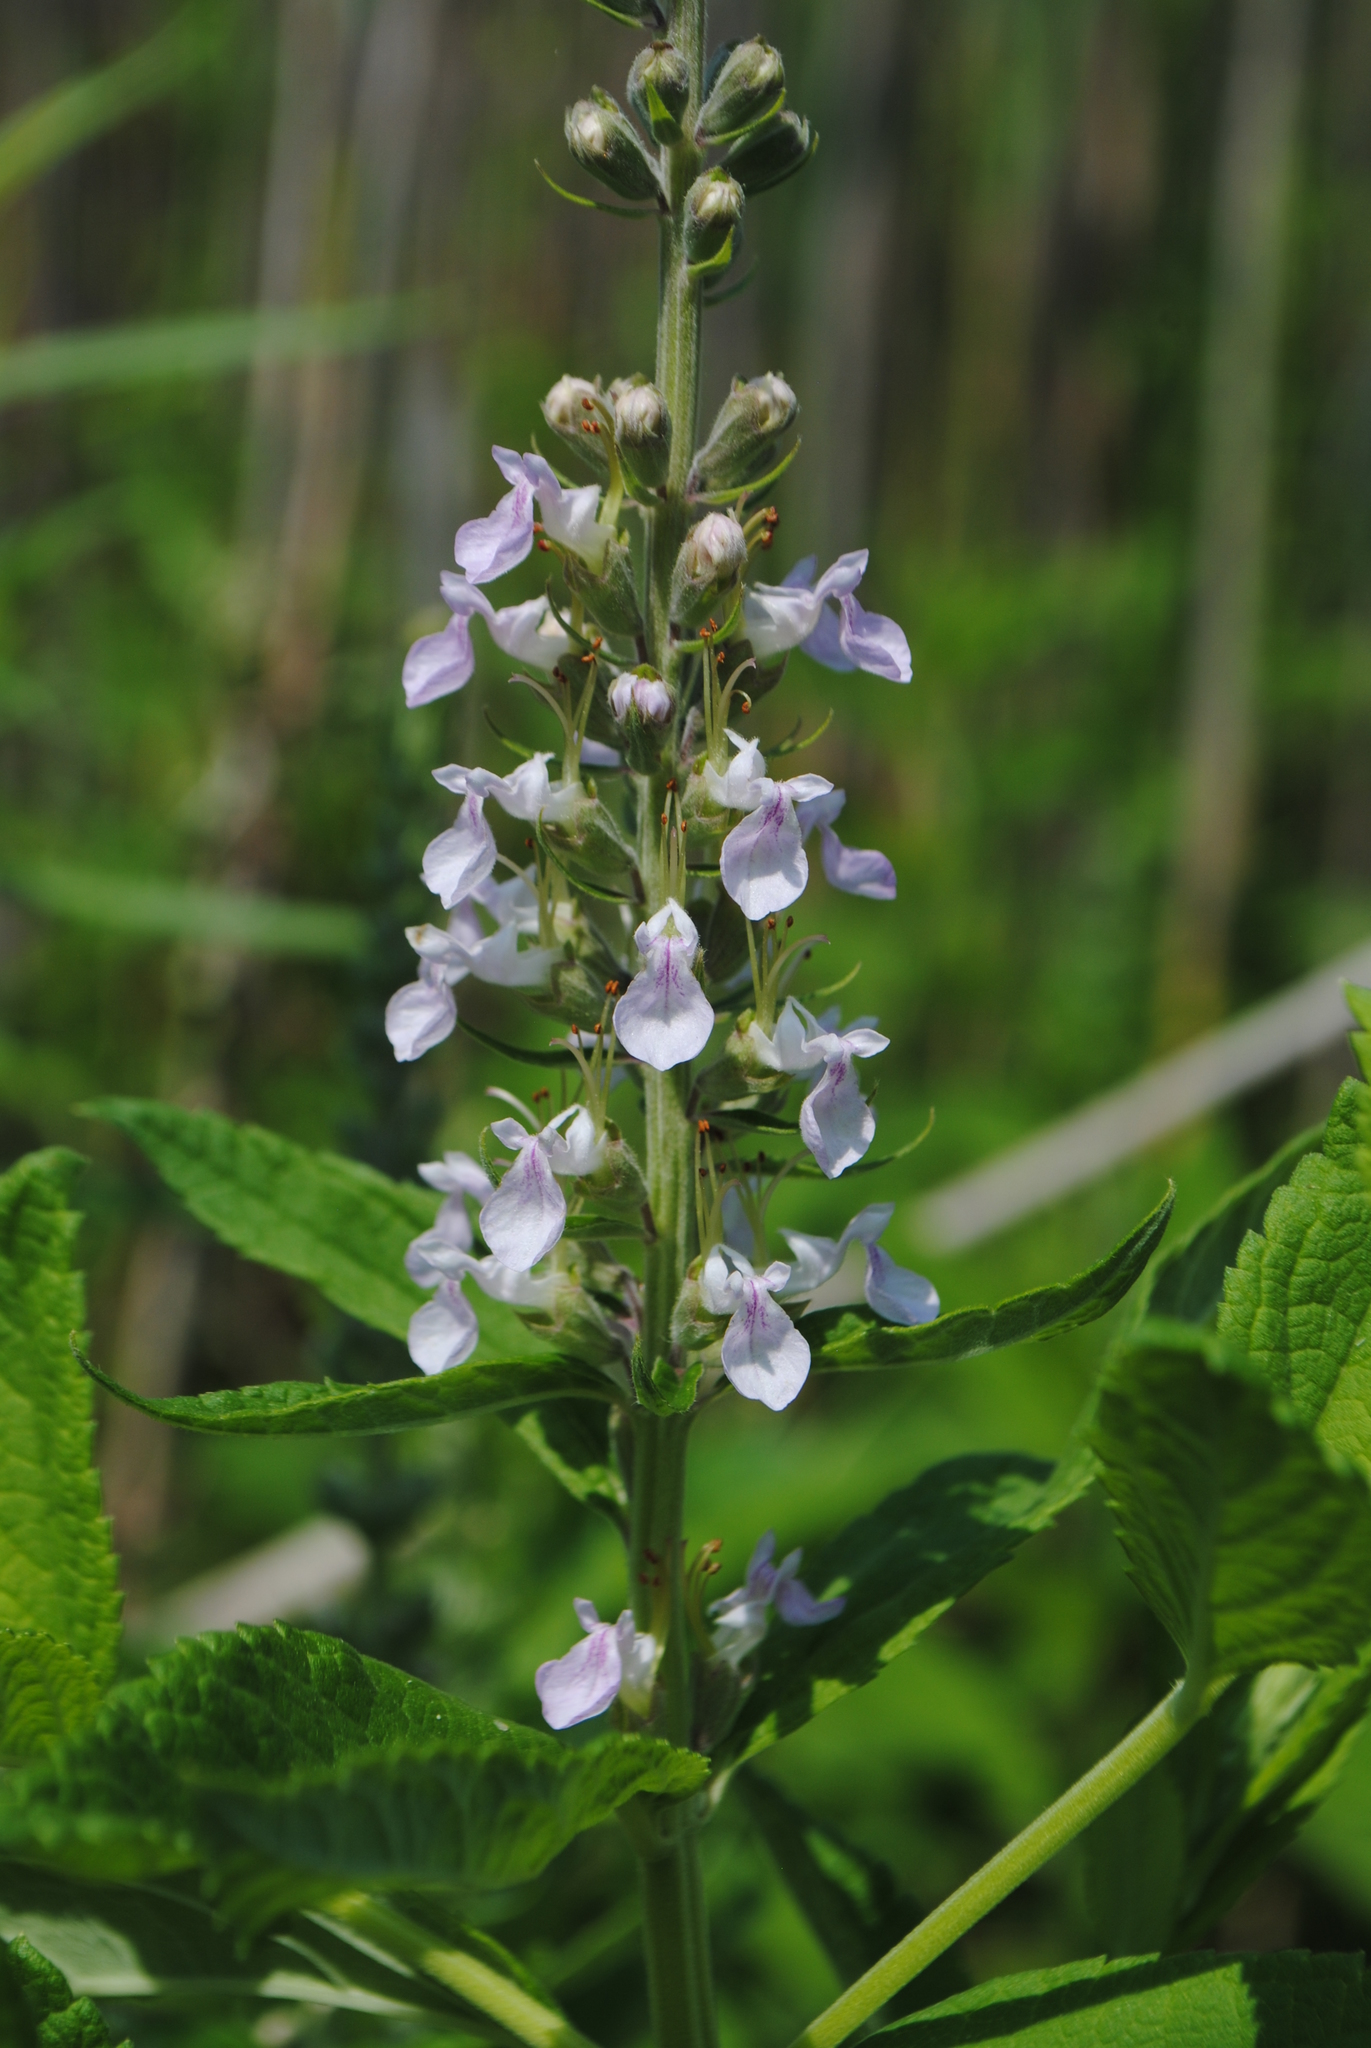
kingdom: Plantae
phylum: Tracheophyta
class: Magnoliopsida
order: Lamiales
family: Lamiaceae
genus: Teucrium
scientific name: Teucrium canadense
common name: American germander
